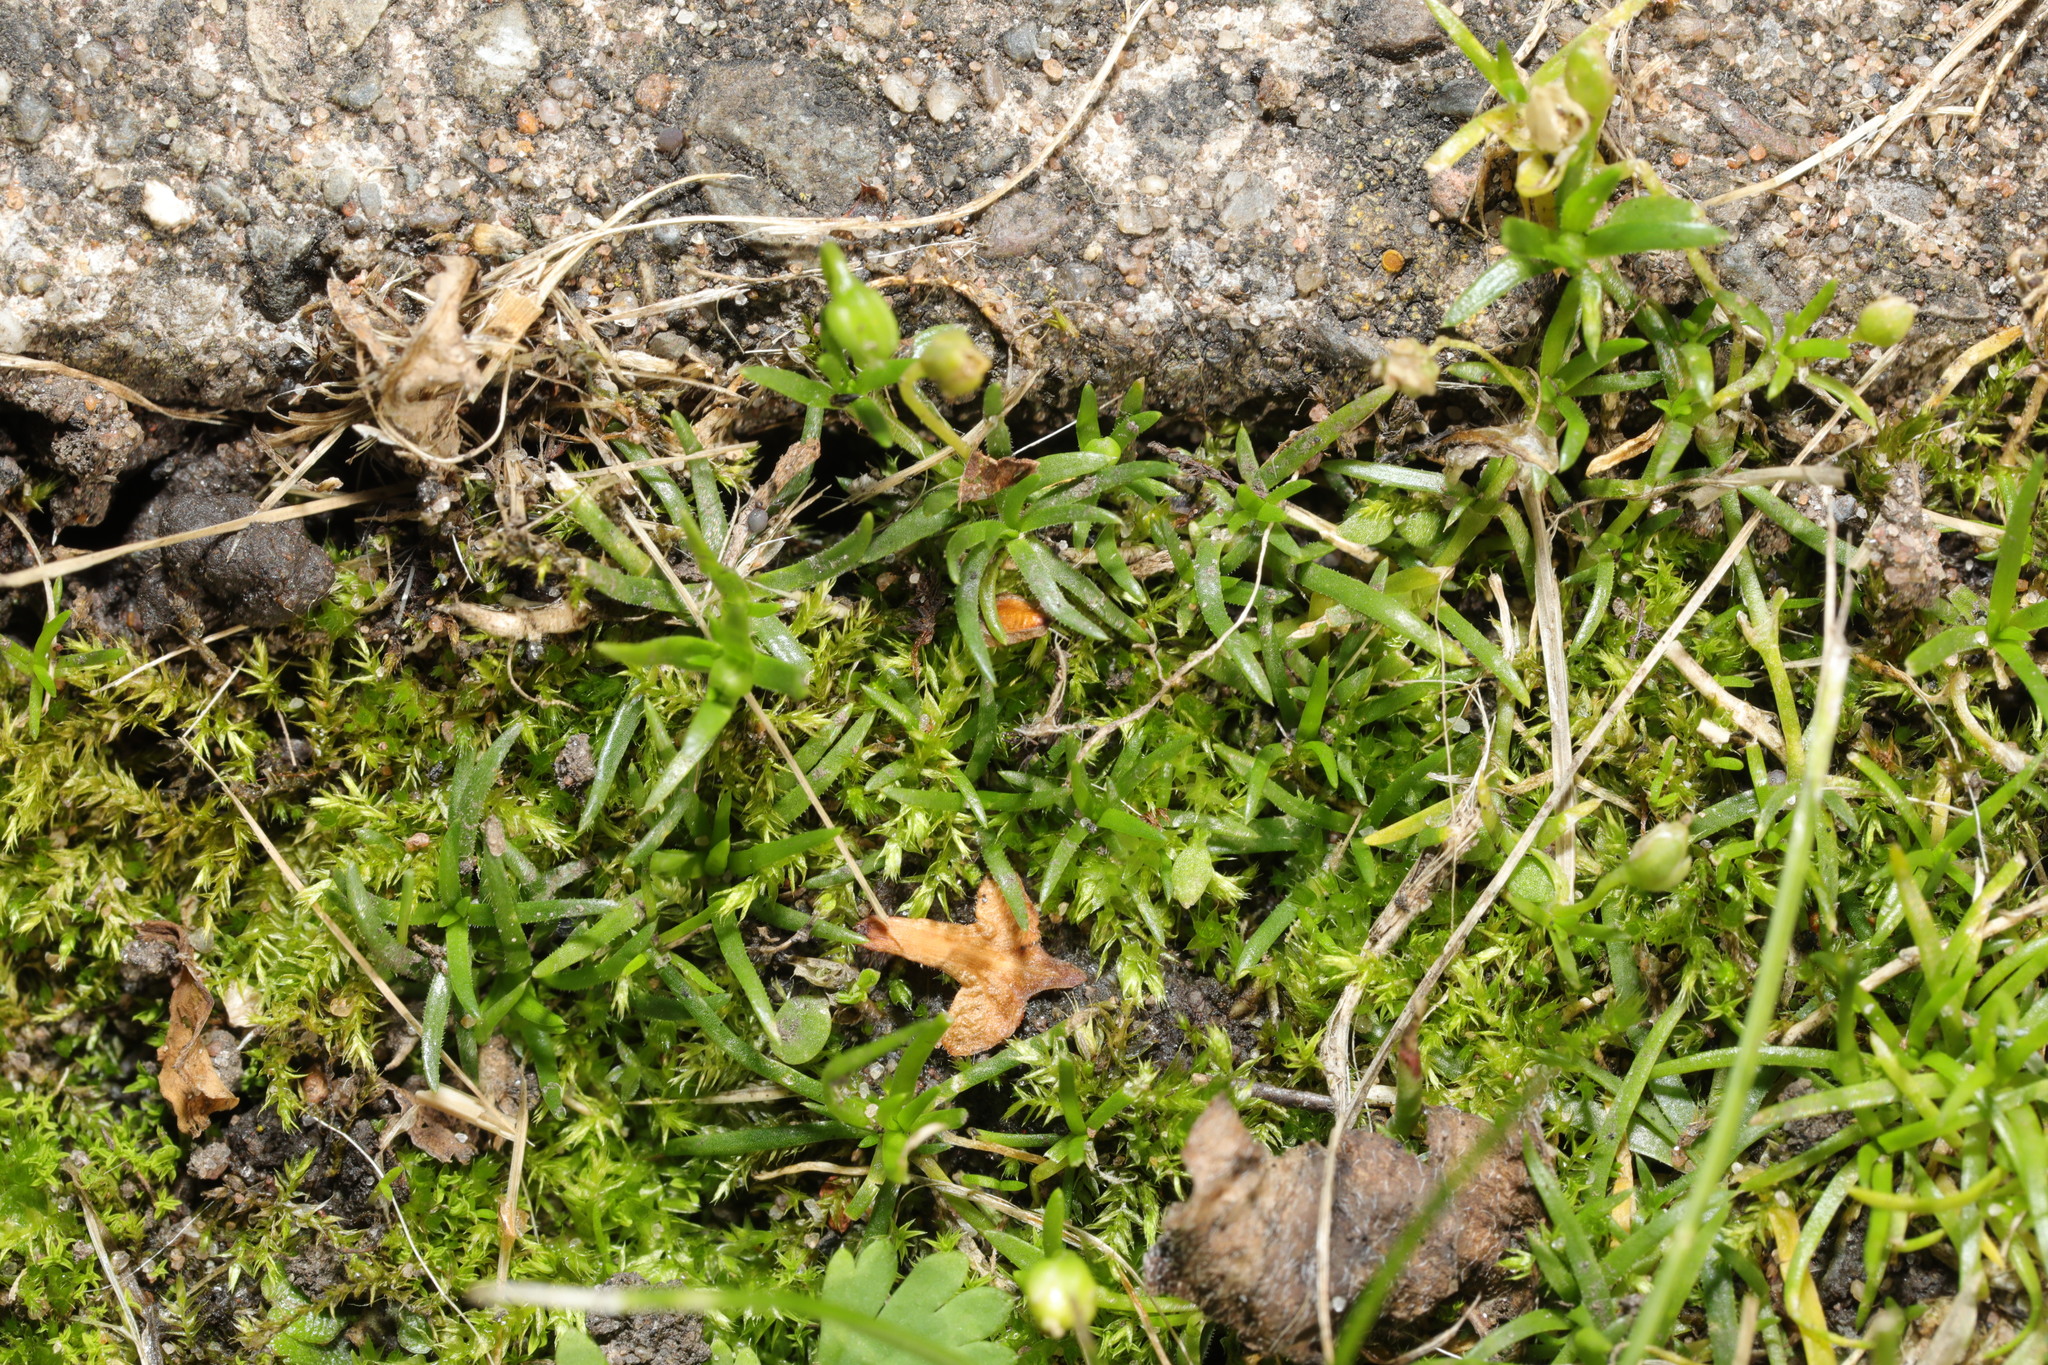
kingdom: Plantae
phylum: Tracheophyta
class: Magnoliopsida
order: Caryophyllales
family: Caryophyllaceae
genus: Sagina
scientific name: Sagina procumbens
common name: Procumbent pearlwort
